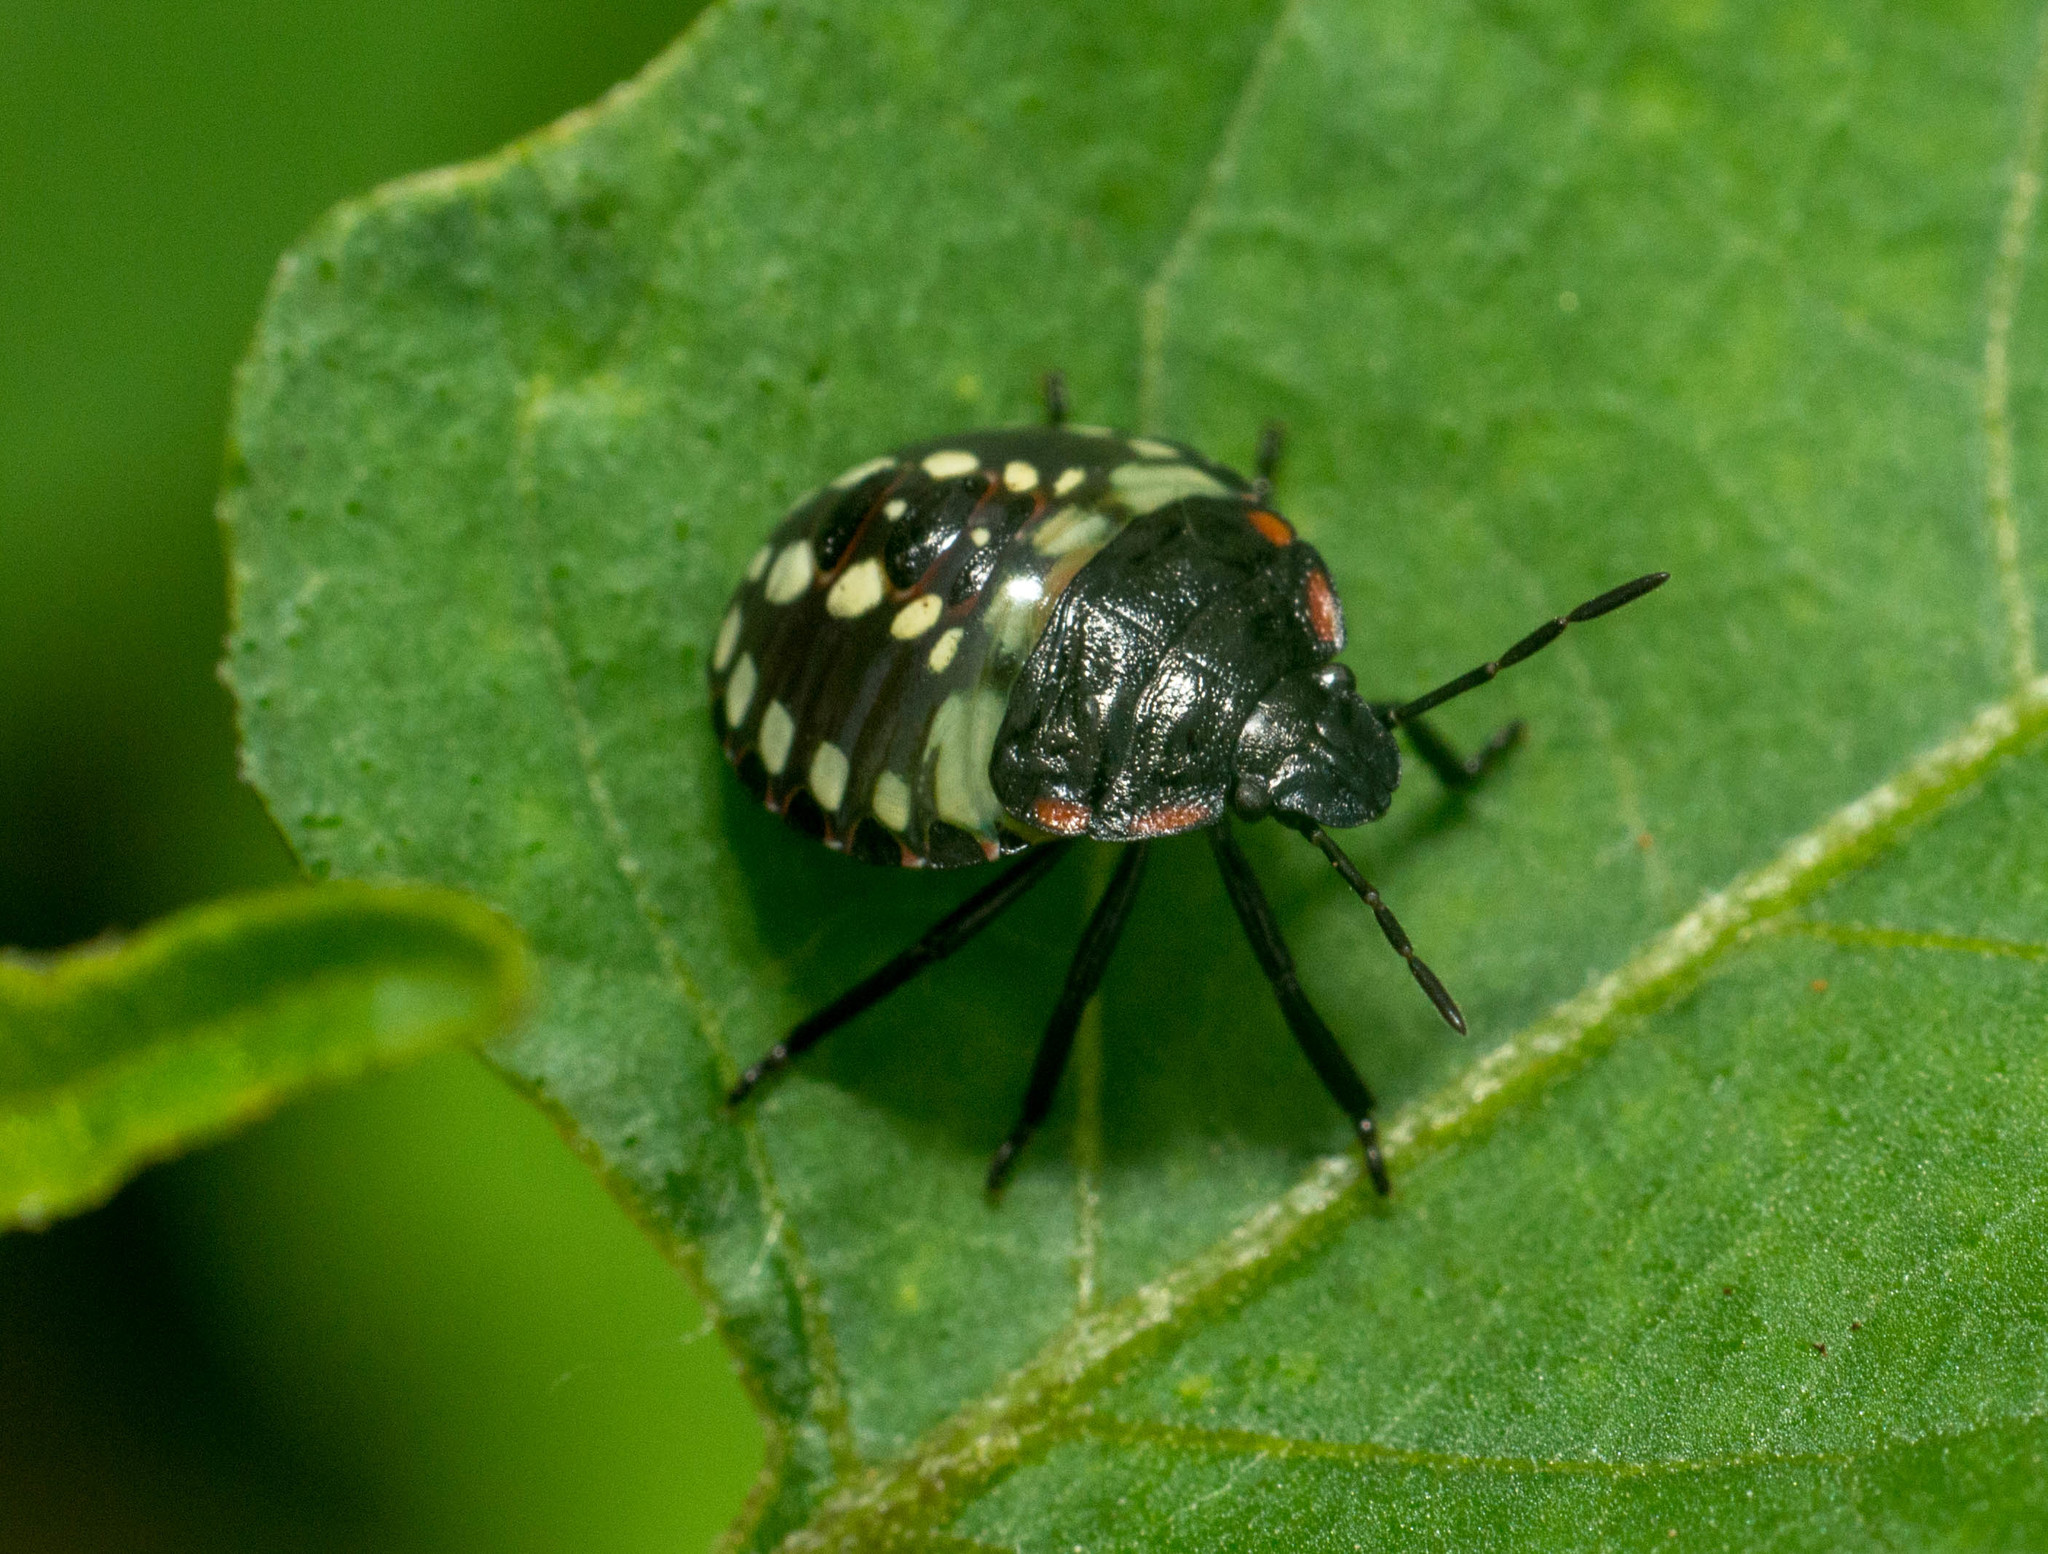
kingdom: Animalia
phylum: Arthropoda
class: Insecta
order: Hemiptera
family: Pentatomidae
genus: Nezara
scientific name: Nezara viridula
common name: Southern green stink bug
